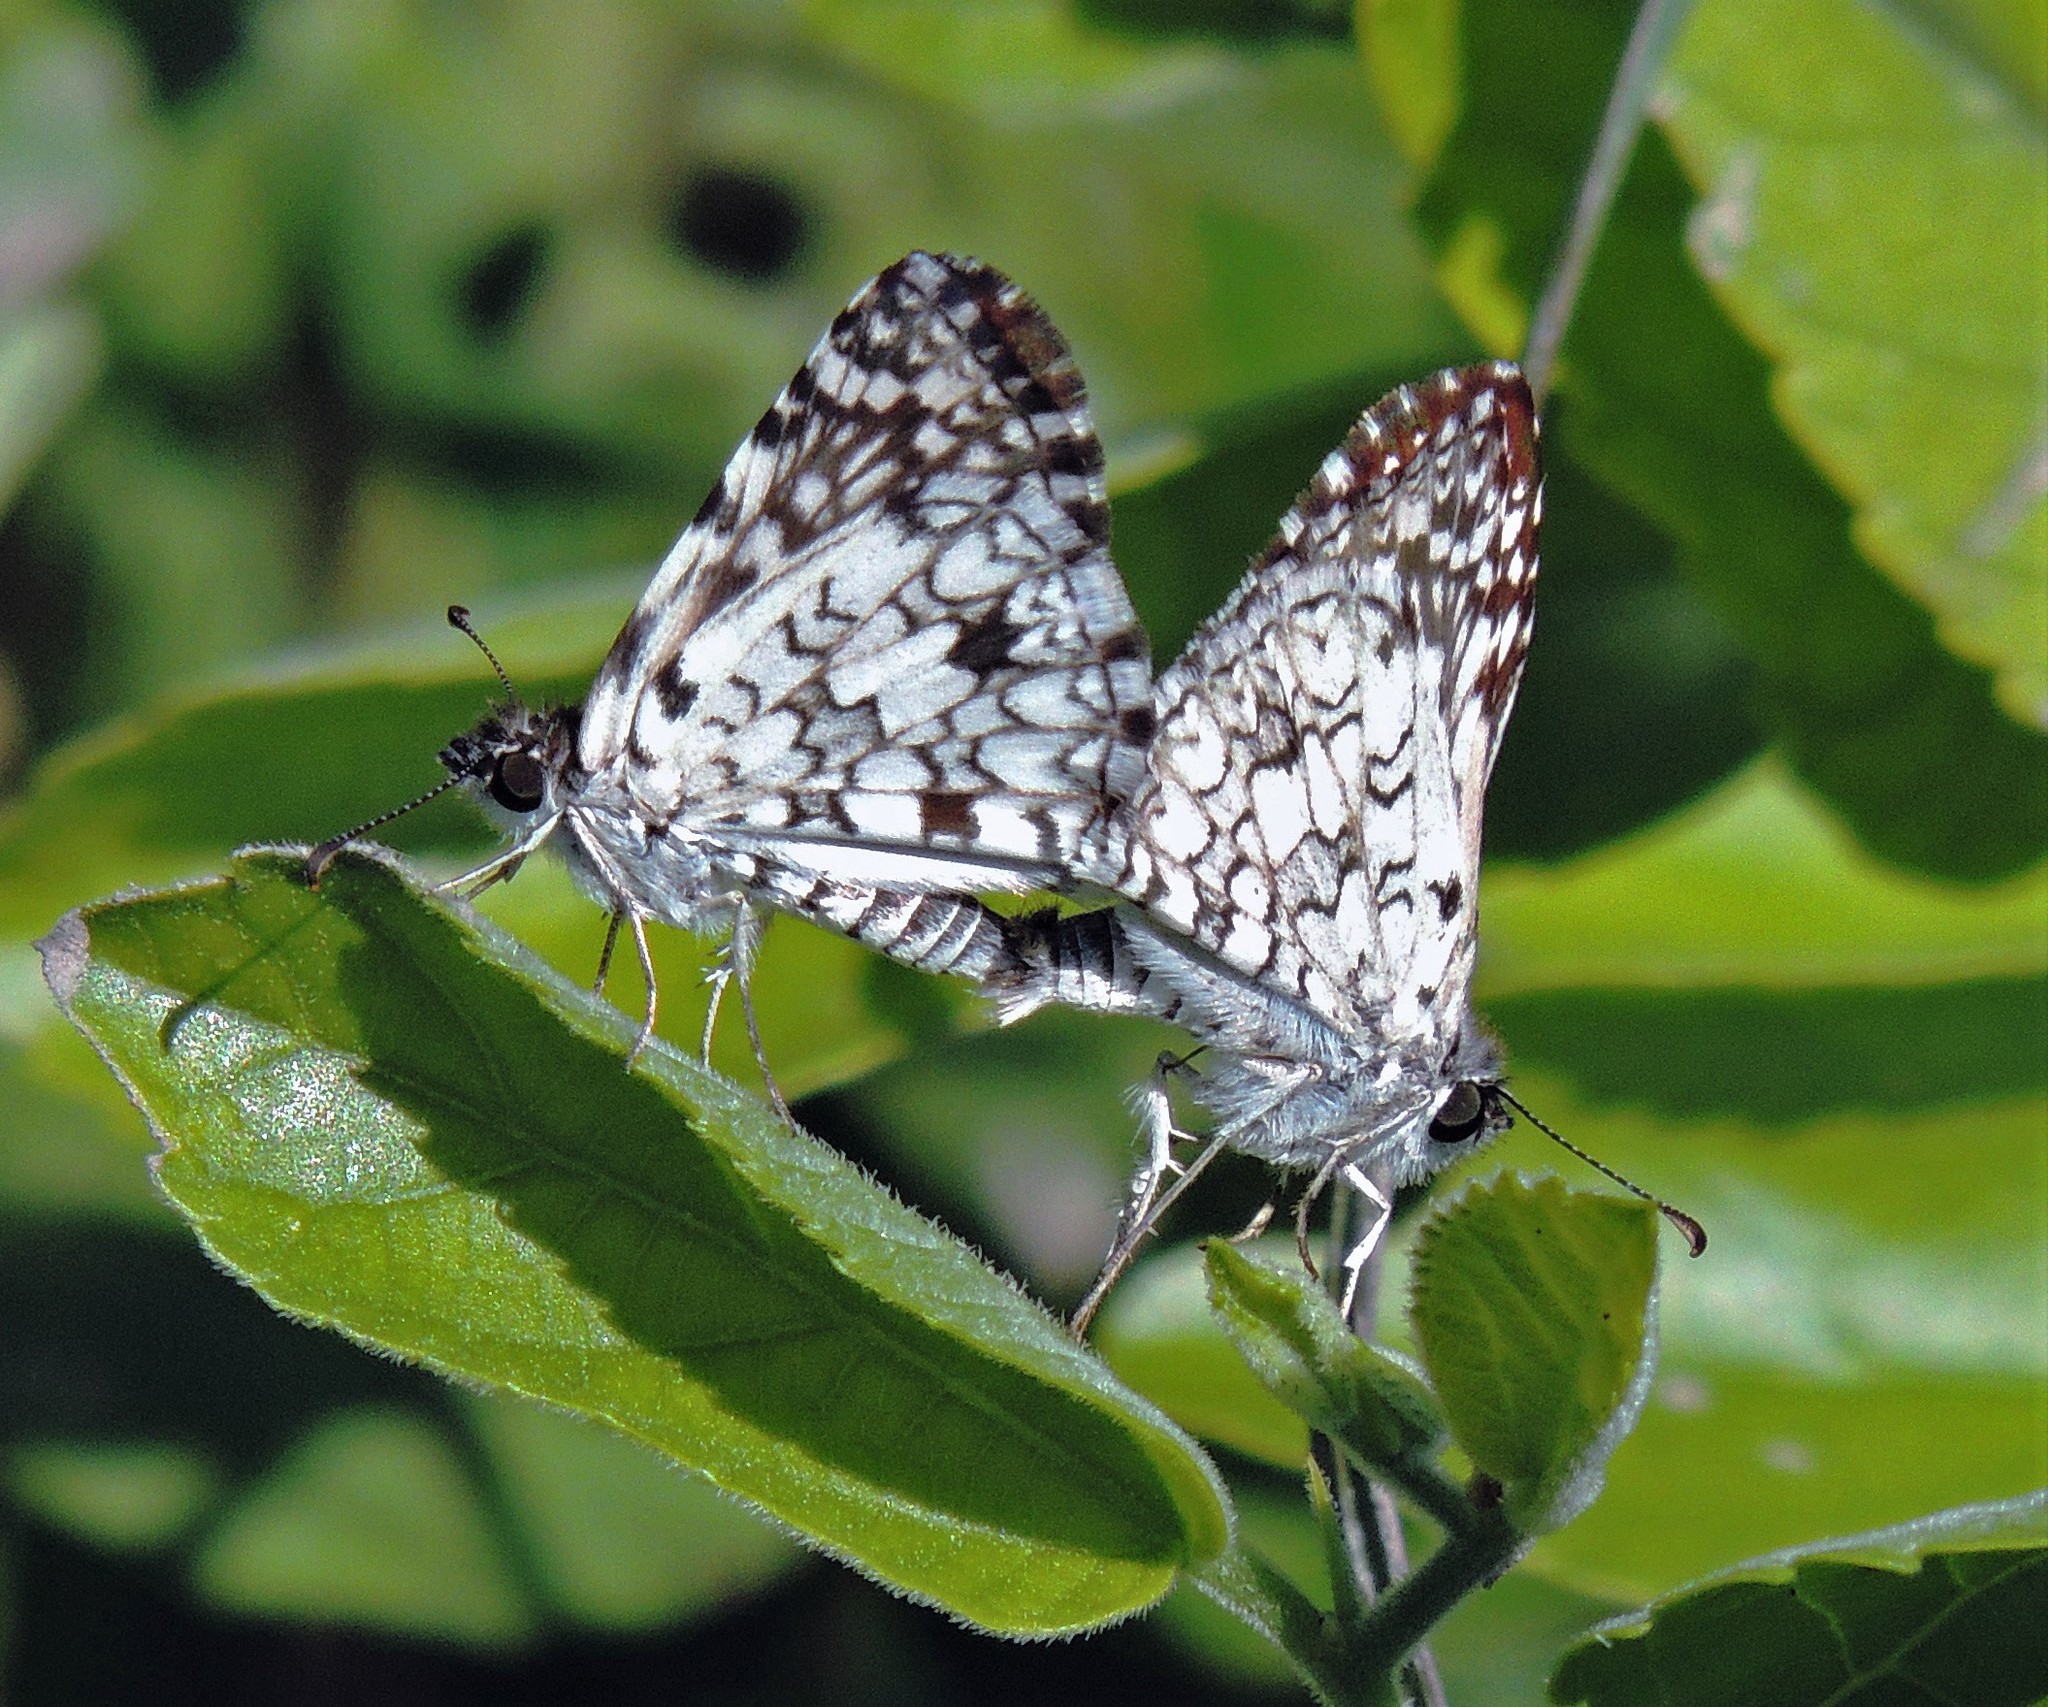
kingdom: Animalia
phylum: Arthropoda
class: Insecta
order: Lepidoptera
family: Hesperiidae
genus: Pyrgus
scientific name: Pyrgus oileus
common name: Tropical checkered-skipper
